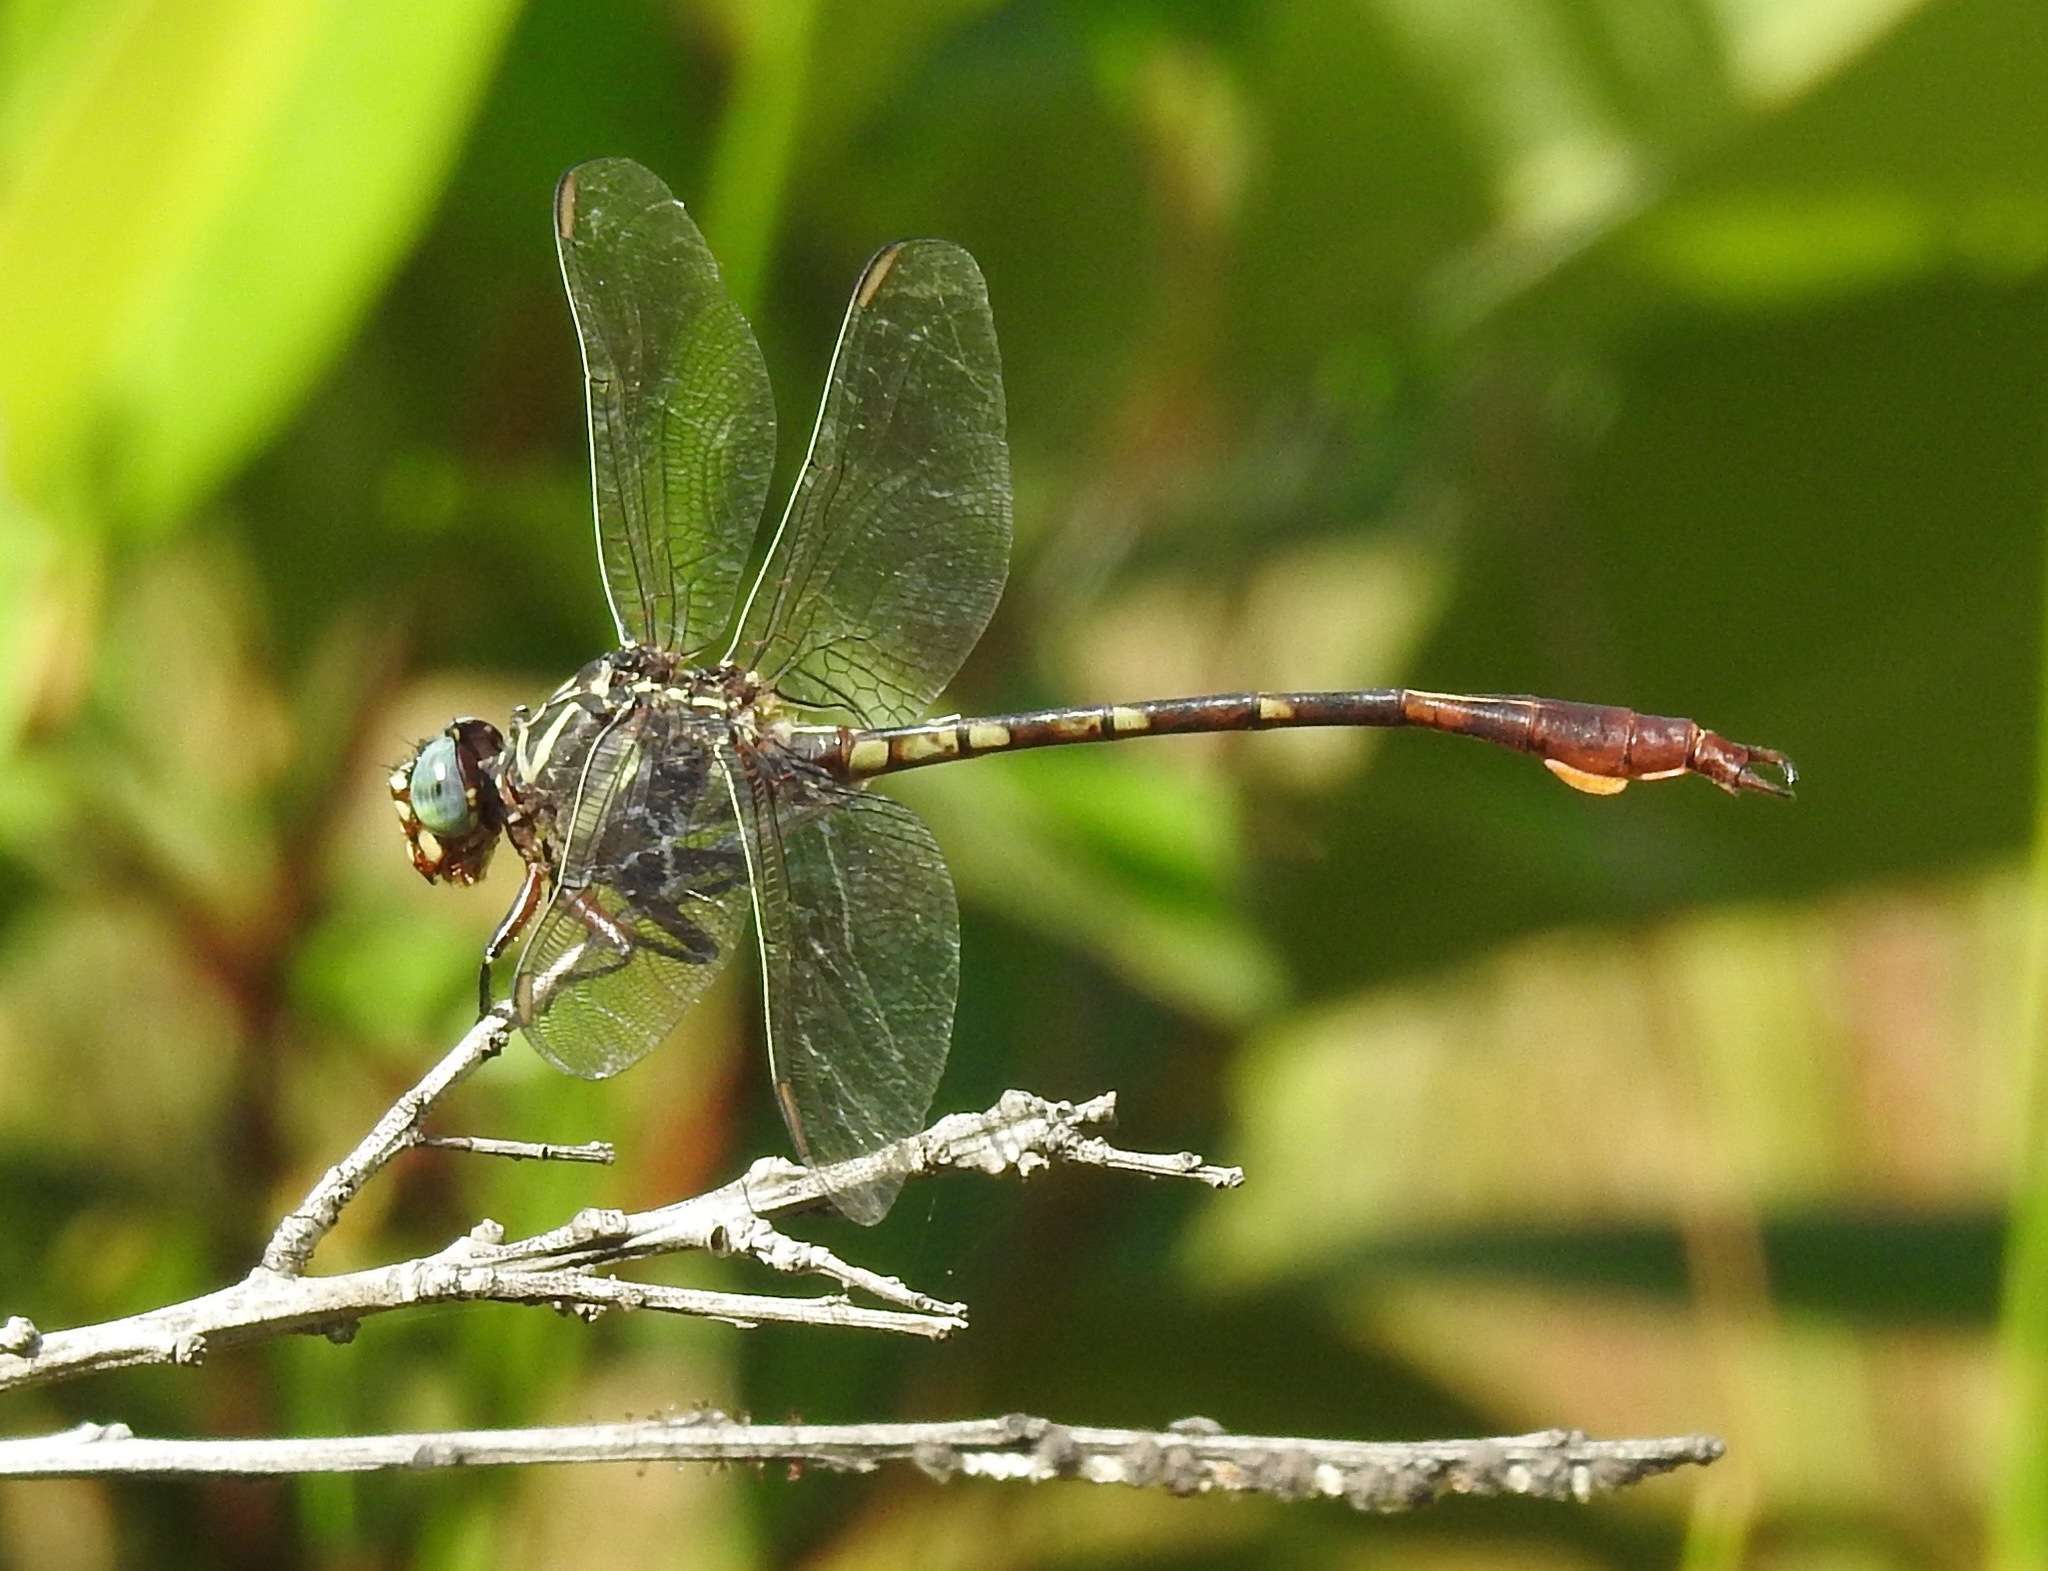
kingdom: Animalia
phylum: Arthropoda
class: Insecta
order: Odonata
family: Gomphidae
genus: Aphylla
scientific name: Aphylla williamsoni
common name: Two-striped forceptail
